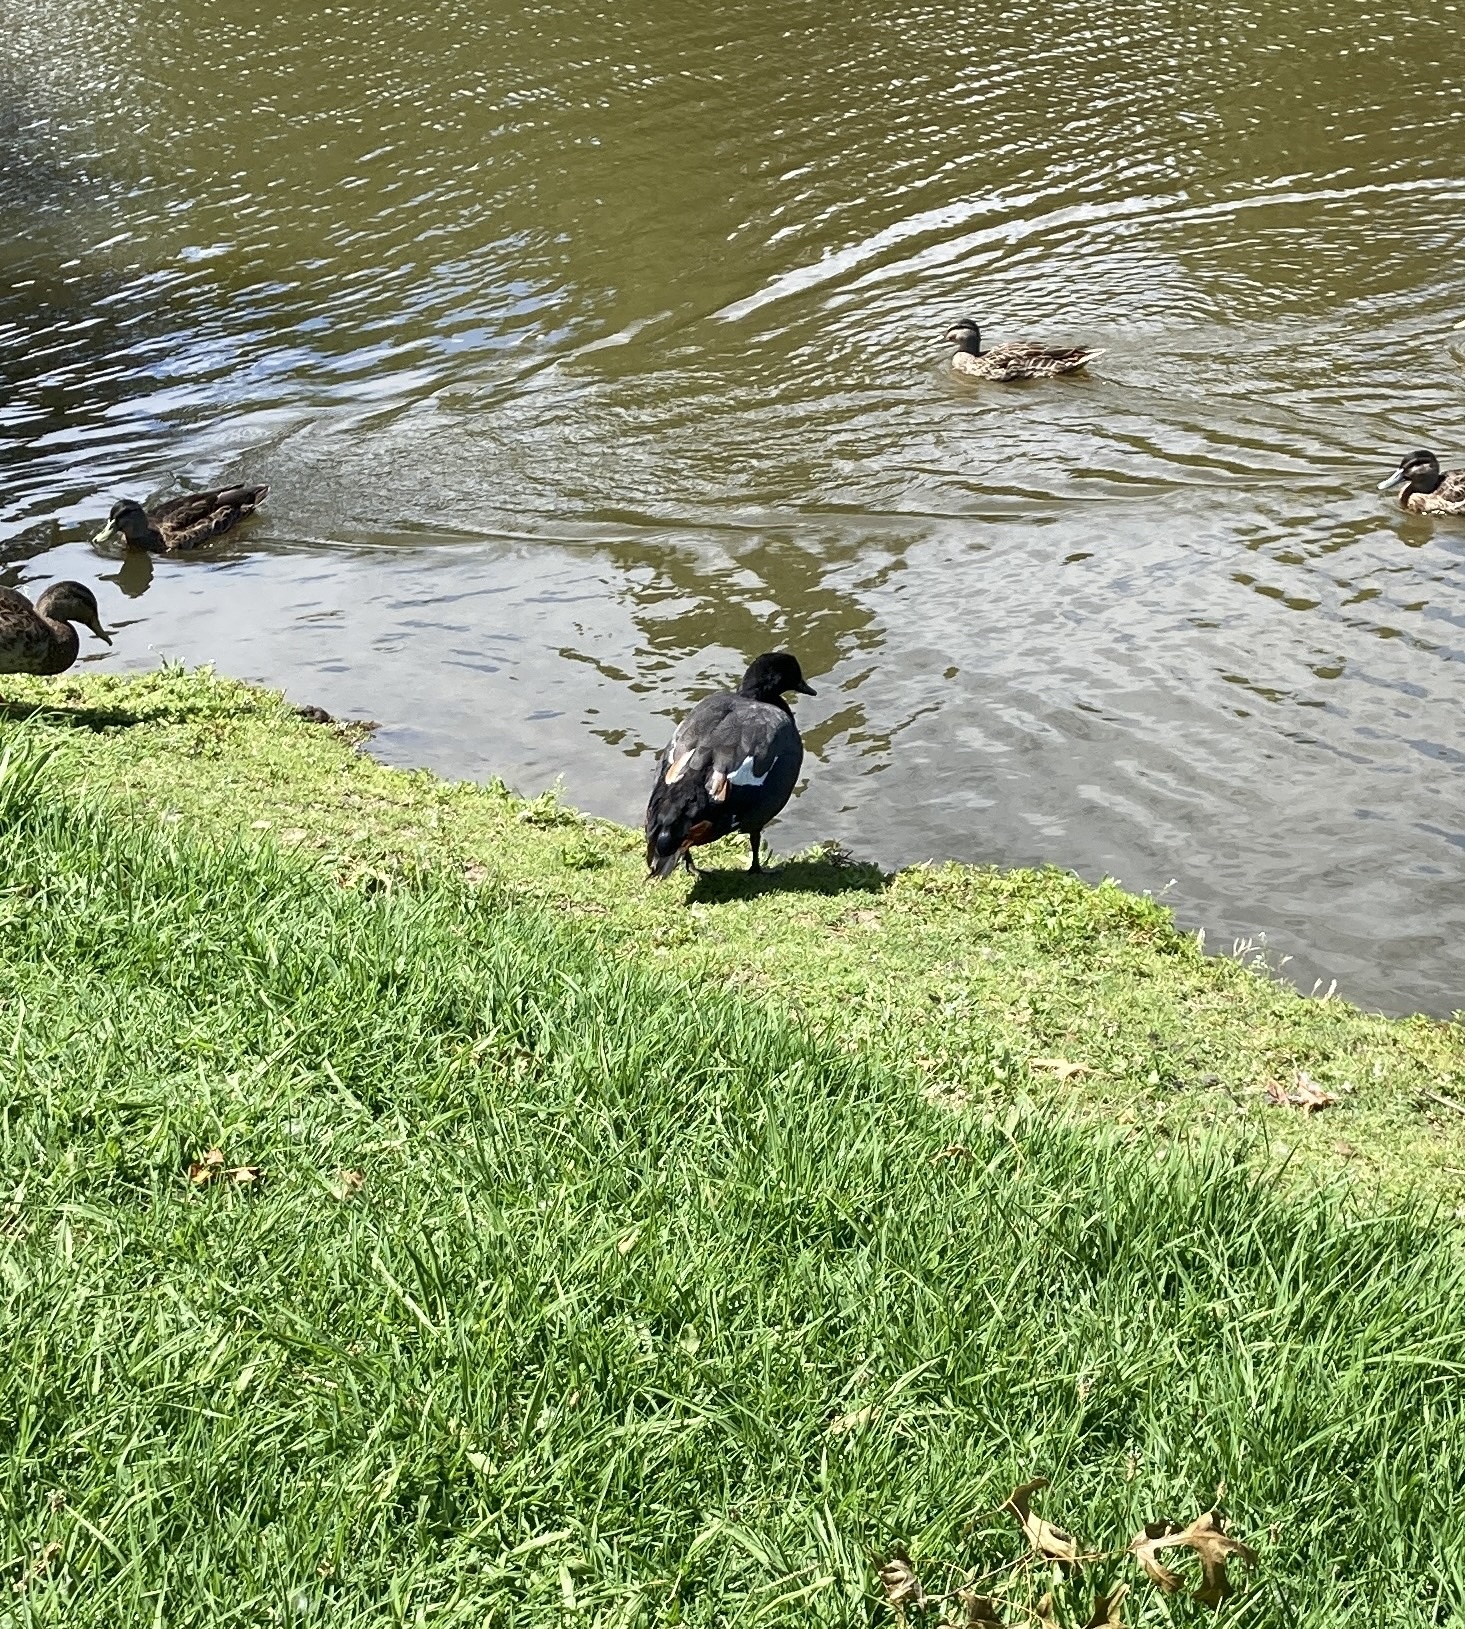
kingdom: Animalia
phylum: Chordata
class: Aves
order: Anseriformes
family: Anatidae
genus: Tadorna
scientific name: Tadorna variegata
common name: Paradise shelduck
